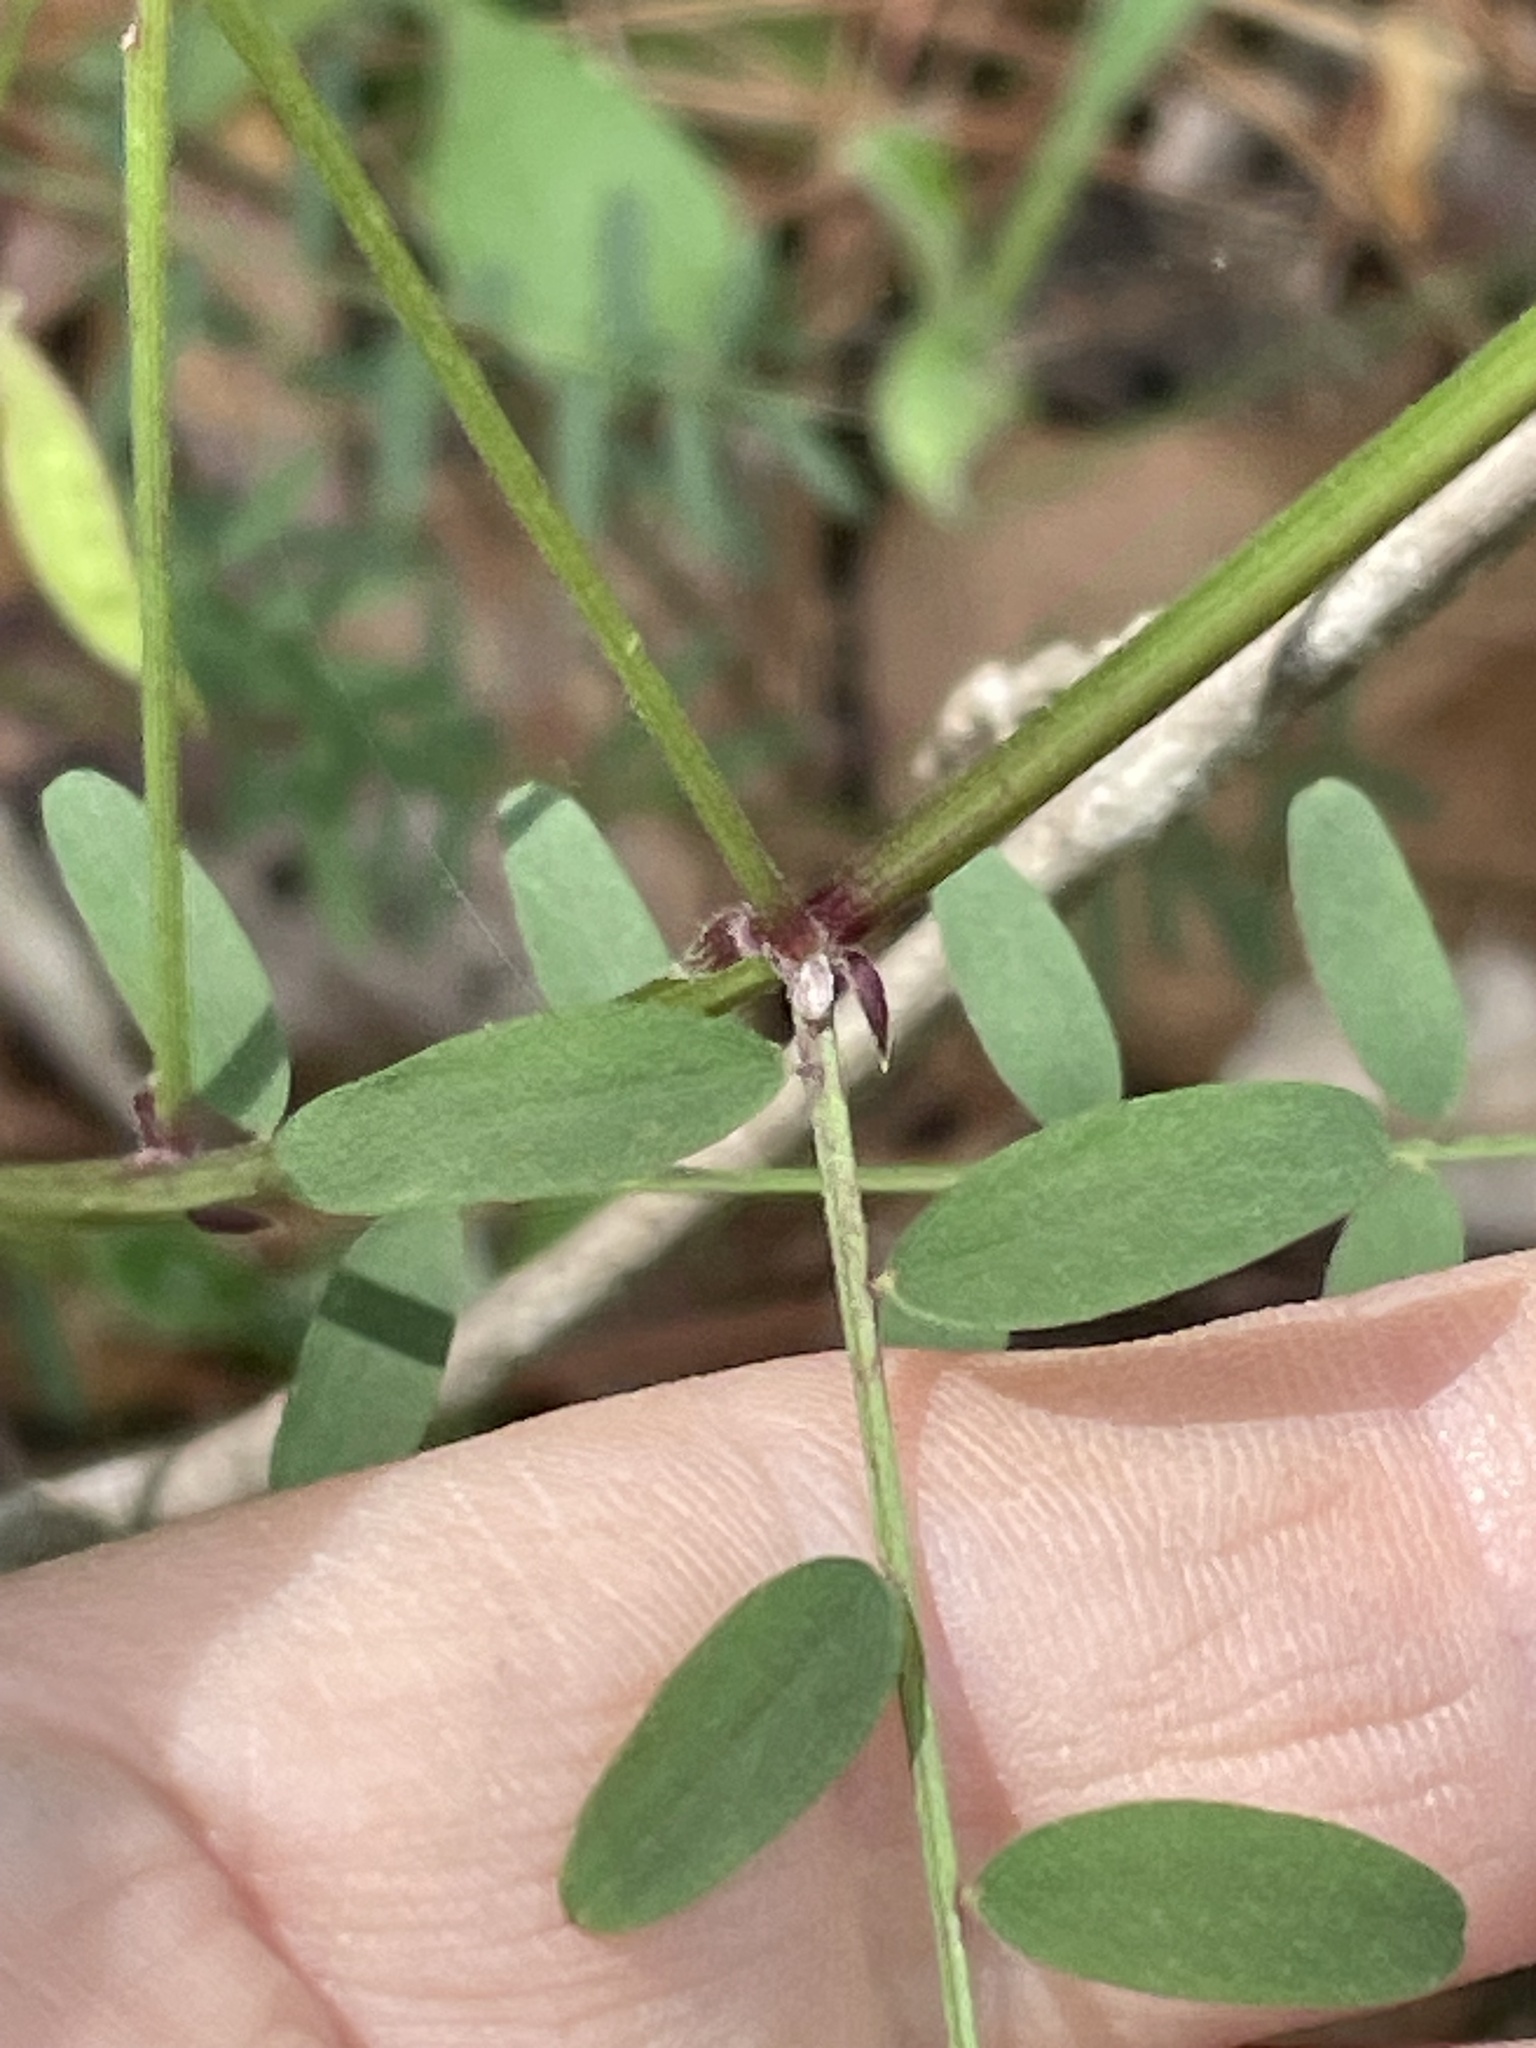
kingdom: Plantae
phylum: Tracheophyta
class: Magnoliopsida
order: Fabales
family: Fabaceae
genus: Vicia
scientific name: Vicia caroliniana
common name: Carolina vetch
